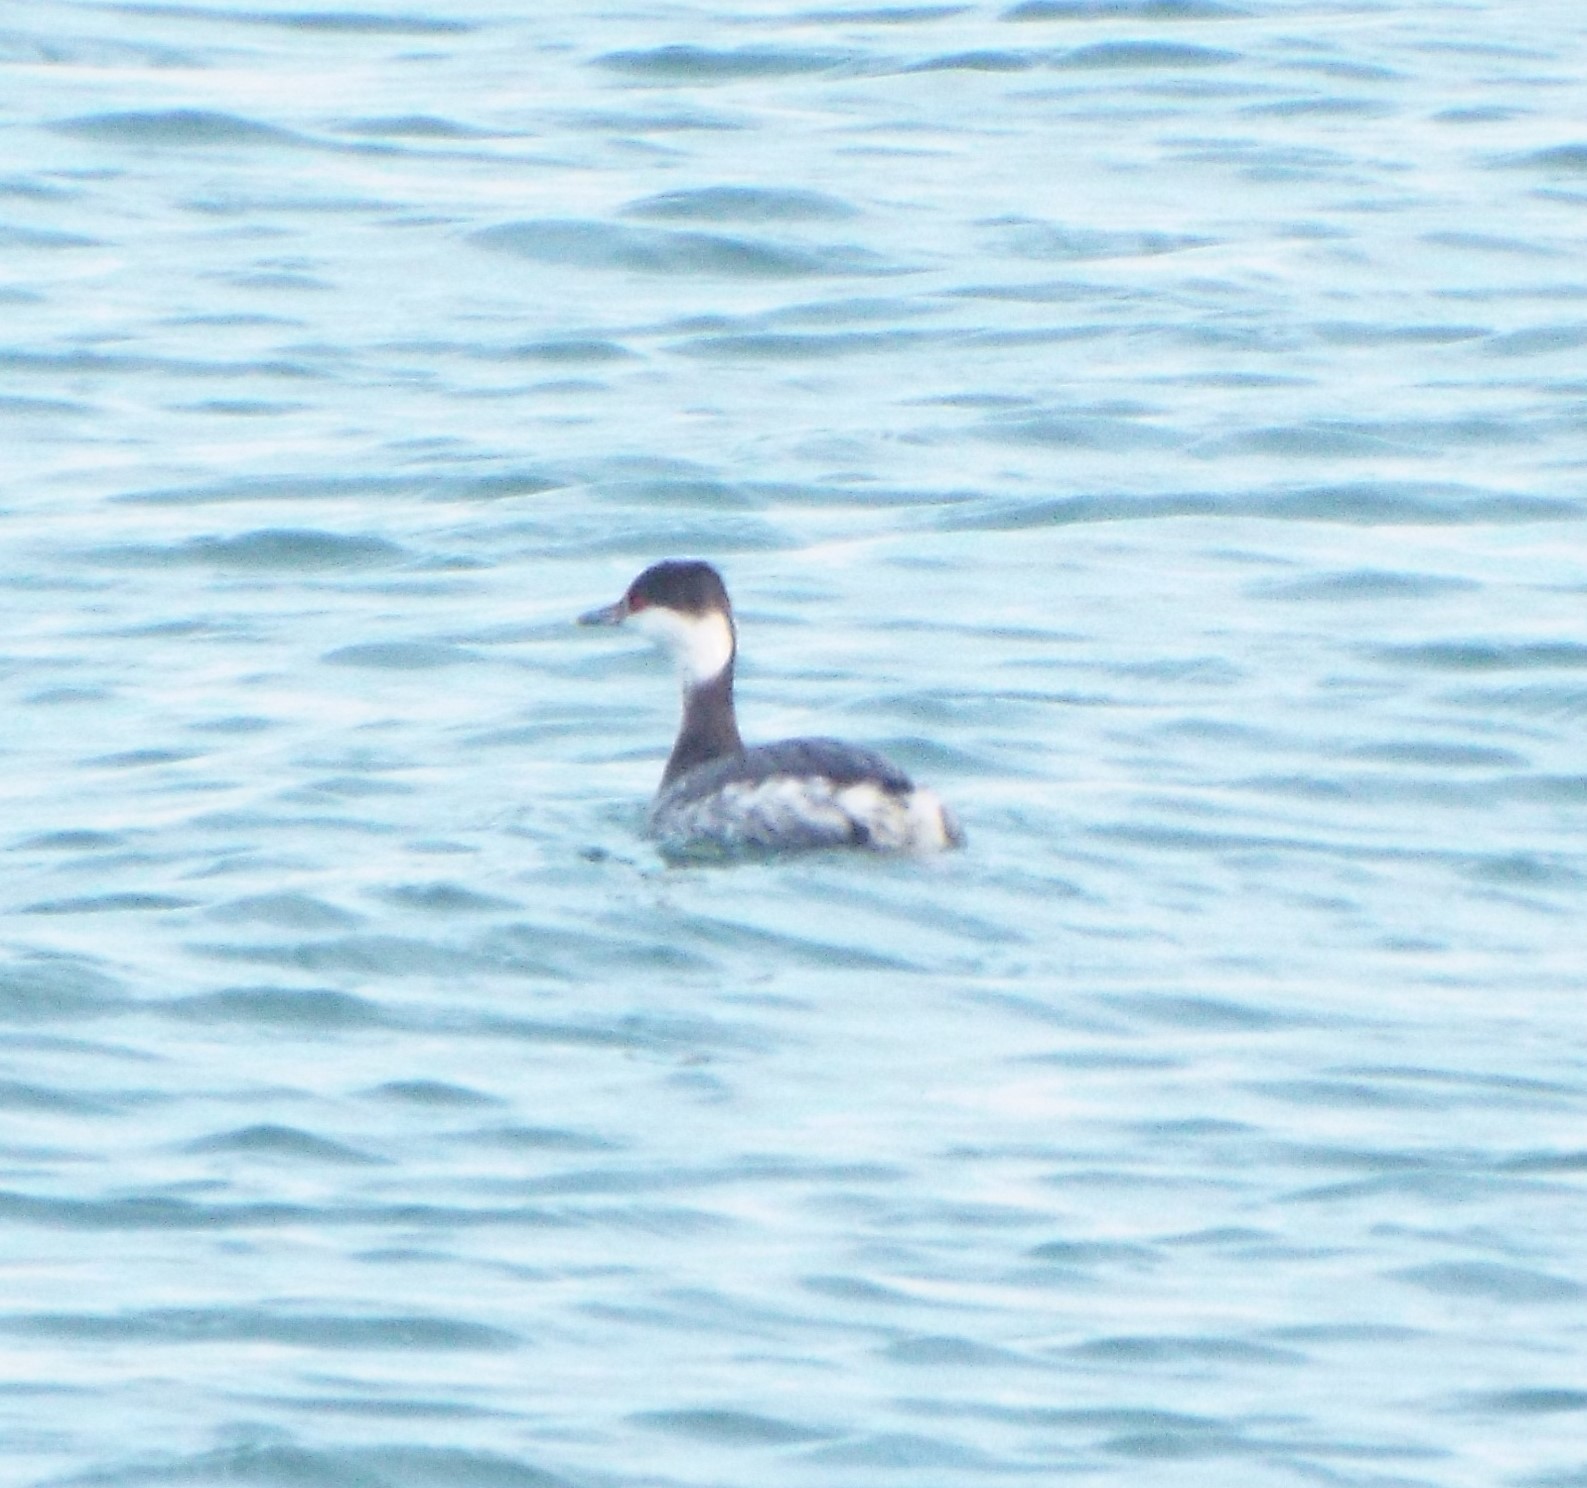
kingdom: Animalia
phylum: Chordata
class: Aves
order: Podicipediformes
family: Podicipedidae
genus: Podiceps
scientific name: Podiceps auritus
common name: Horned grebe
